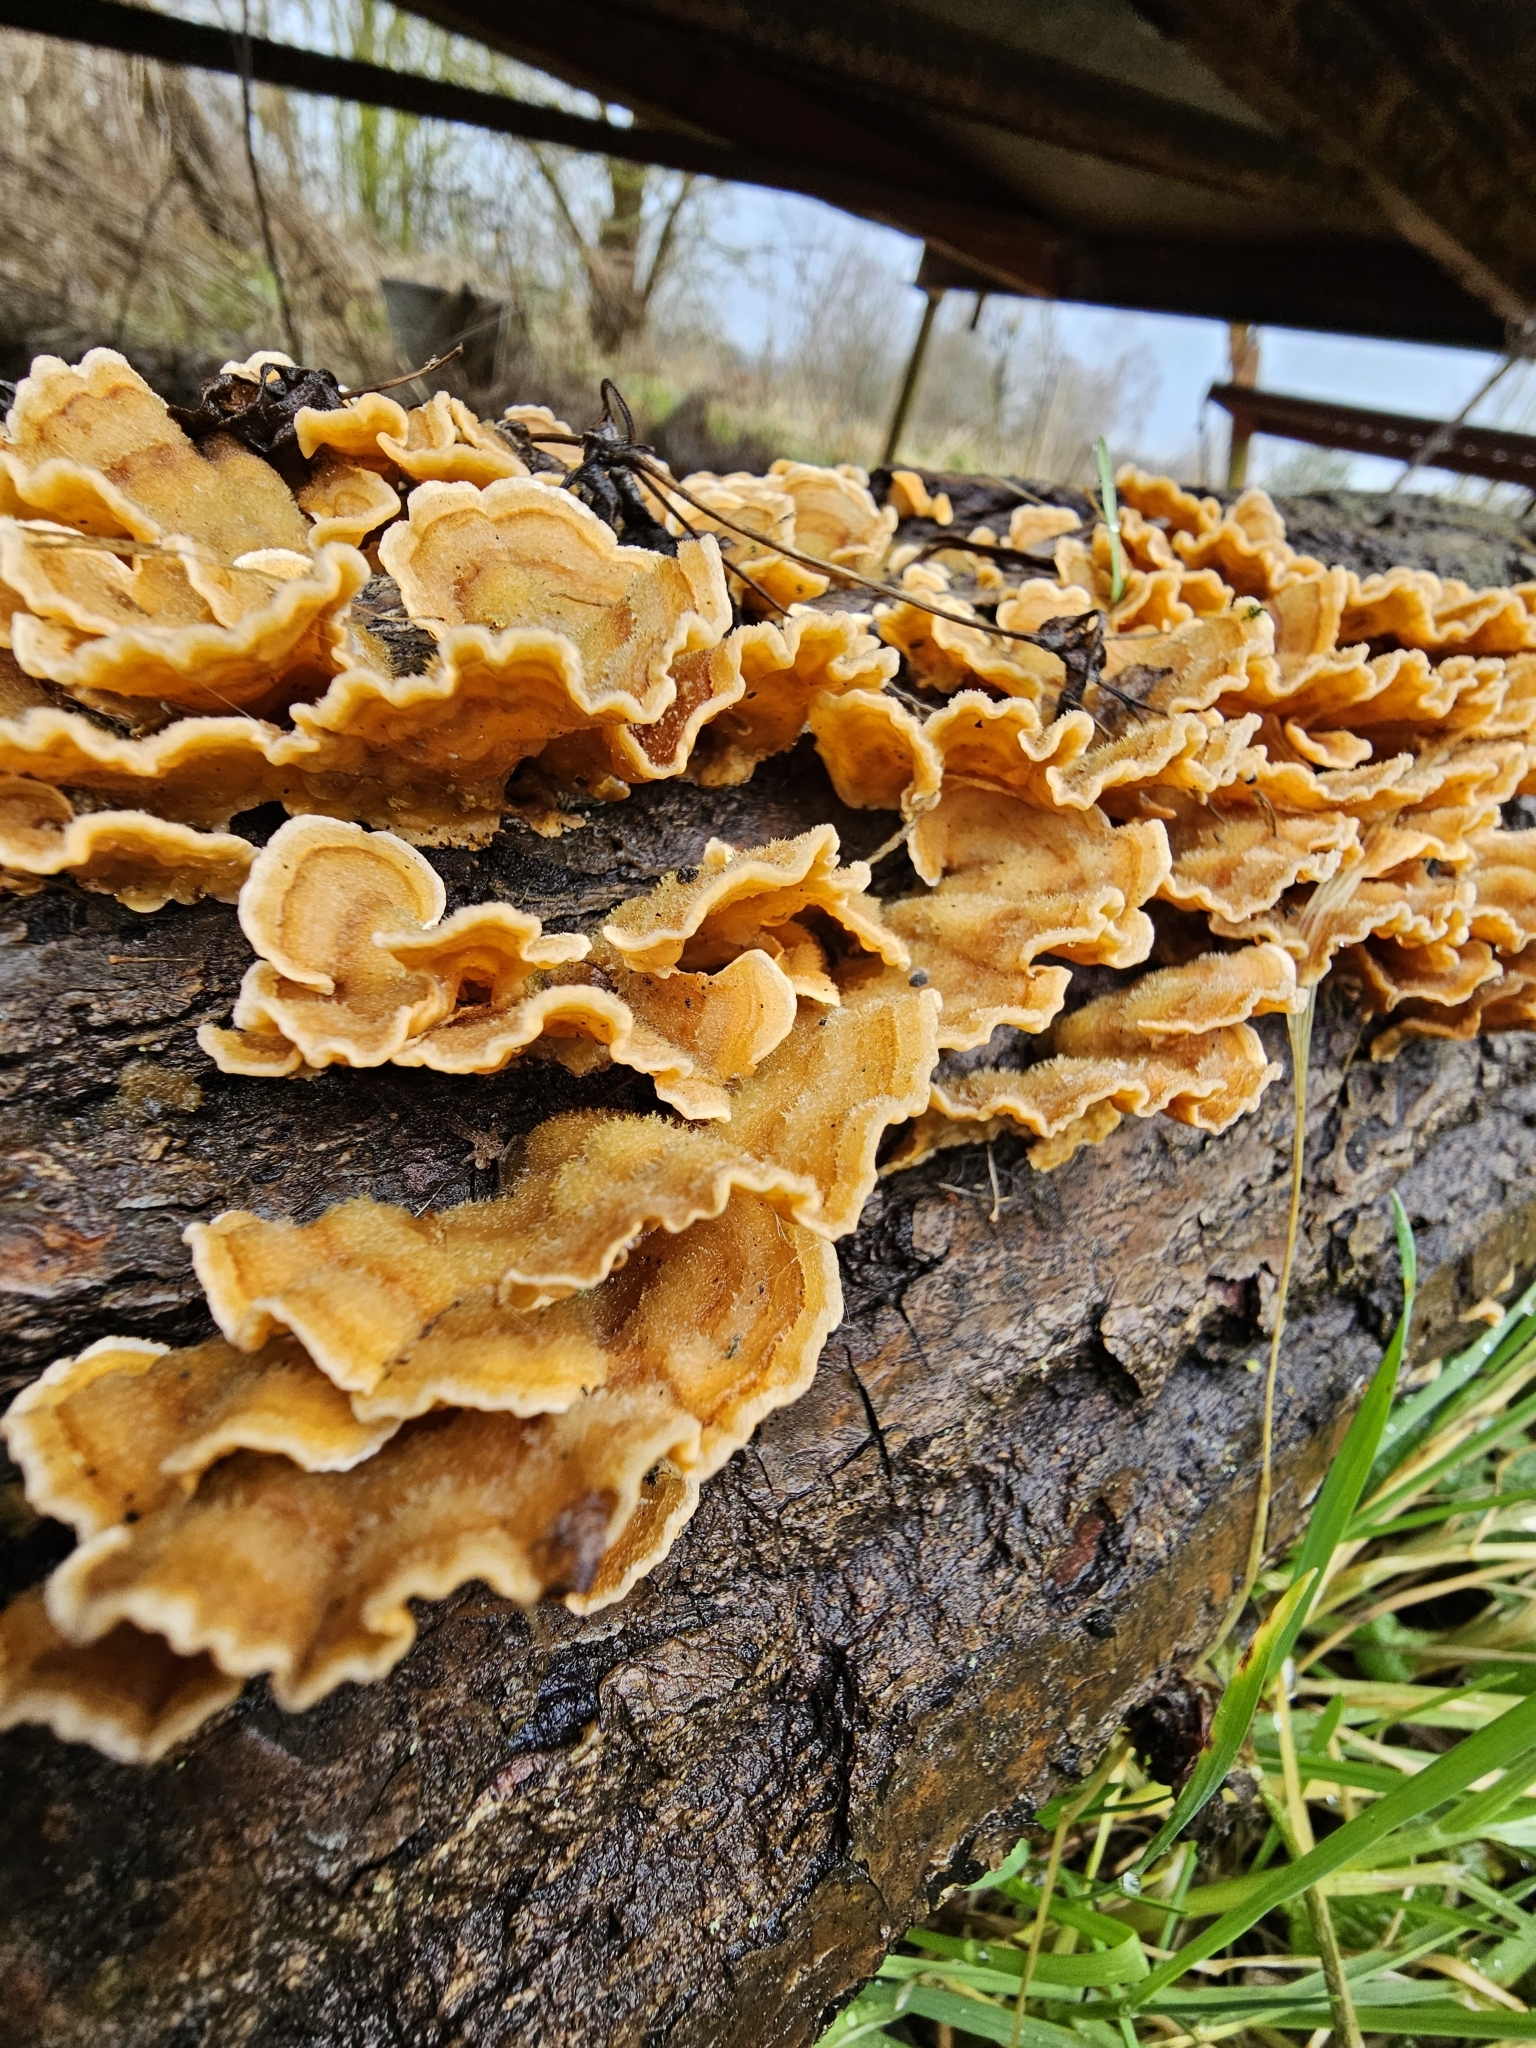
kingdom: Fungi
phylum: Basidiomycota
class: Agaricomycetes
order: Russulales
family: Stereaceae
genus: Stereum
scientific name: Stereum hirsutum
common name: Hairy curtain crust
